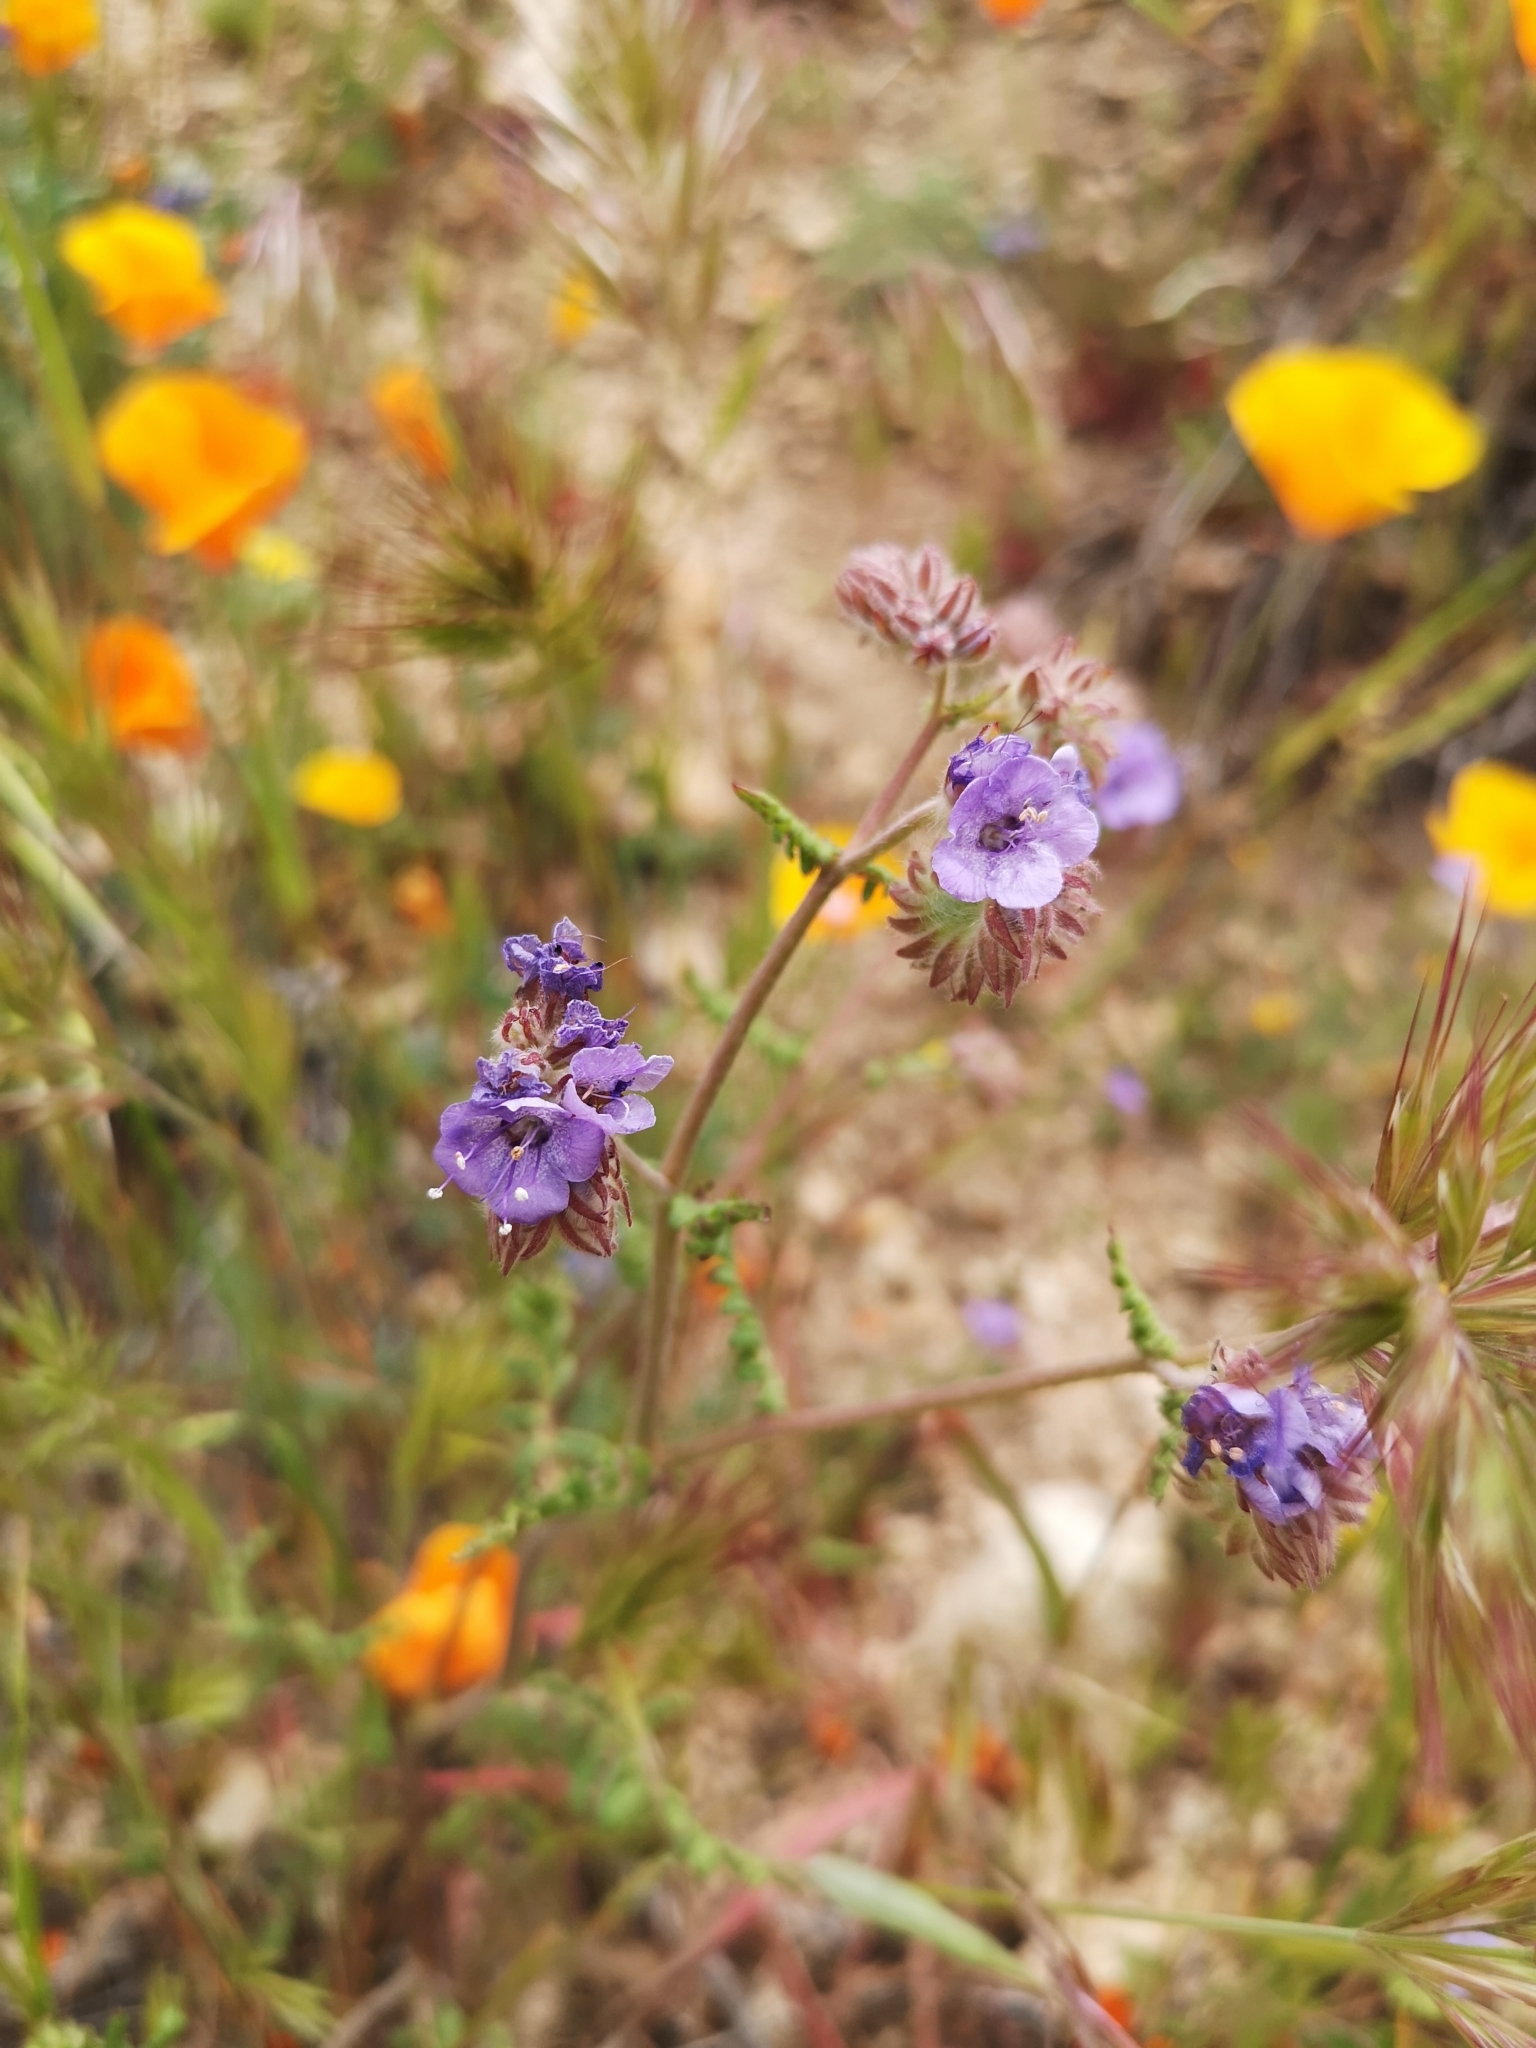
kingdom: Plantae
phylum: Tracheophyta
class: Magnoliopsida
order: Boraginales
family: Hydrophyllaceae
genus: Phacelia
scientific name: Phacelia distans
